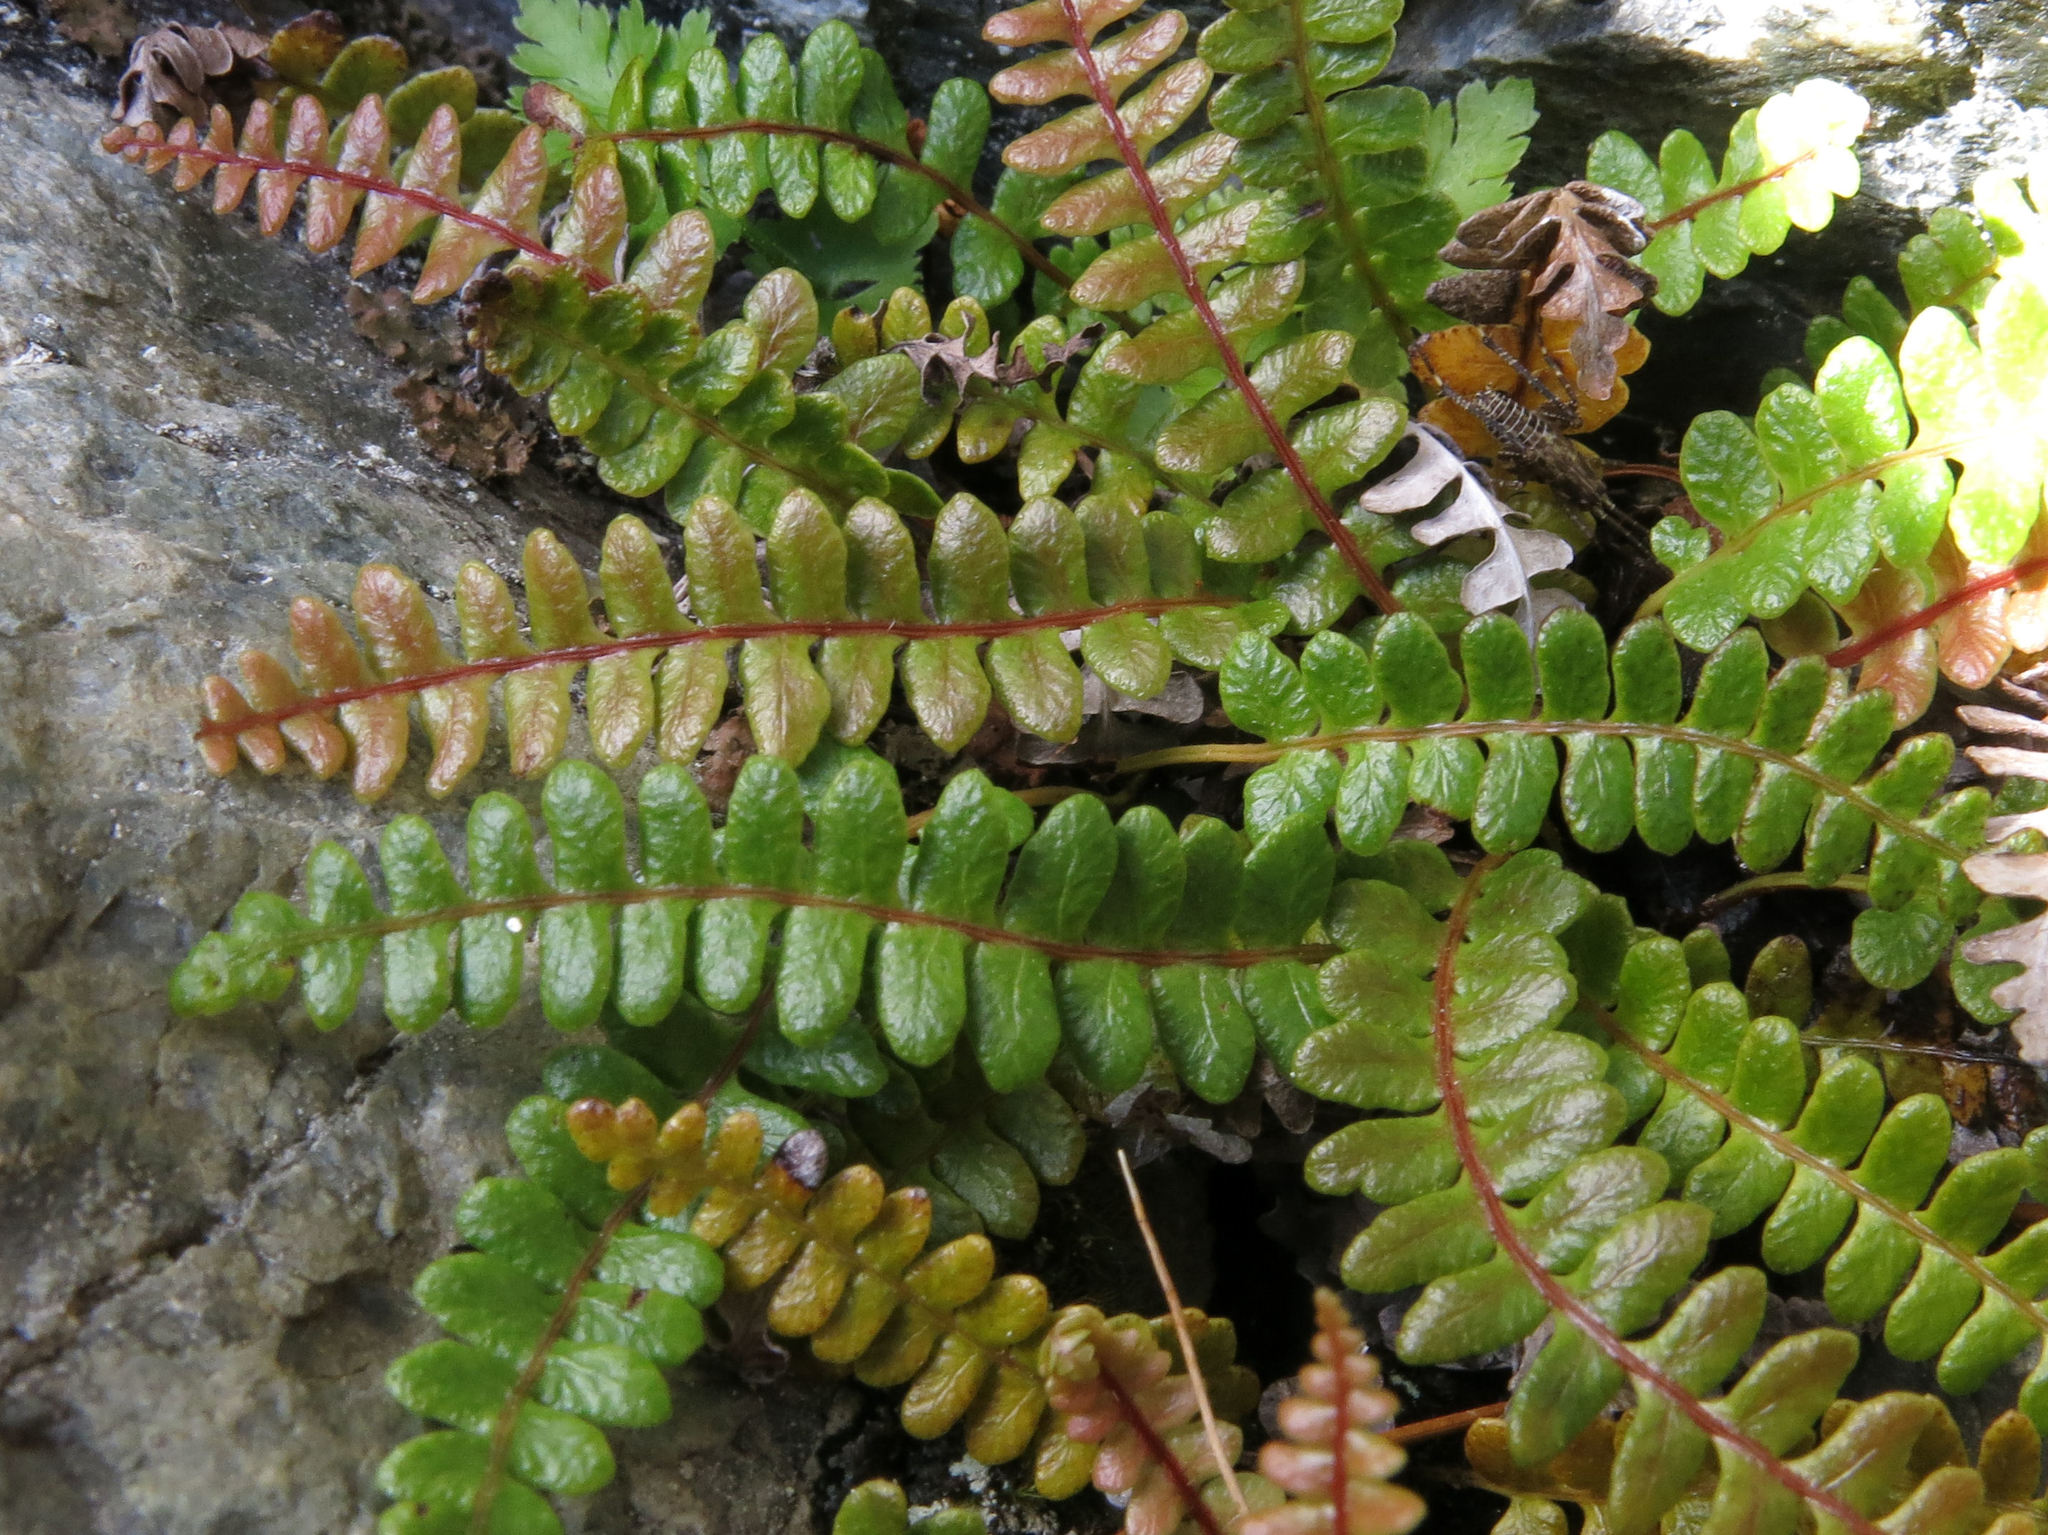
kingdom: Plantae
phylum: Tracheophyta
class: Polypodiopsida
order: Polypodiales
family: Blechnaceae
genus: Austroblechnum
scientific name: Austroblechnum penna-marina
